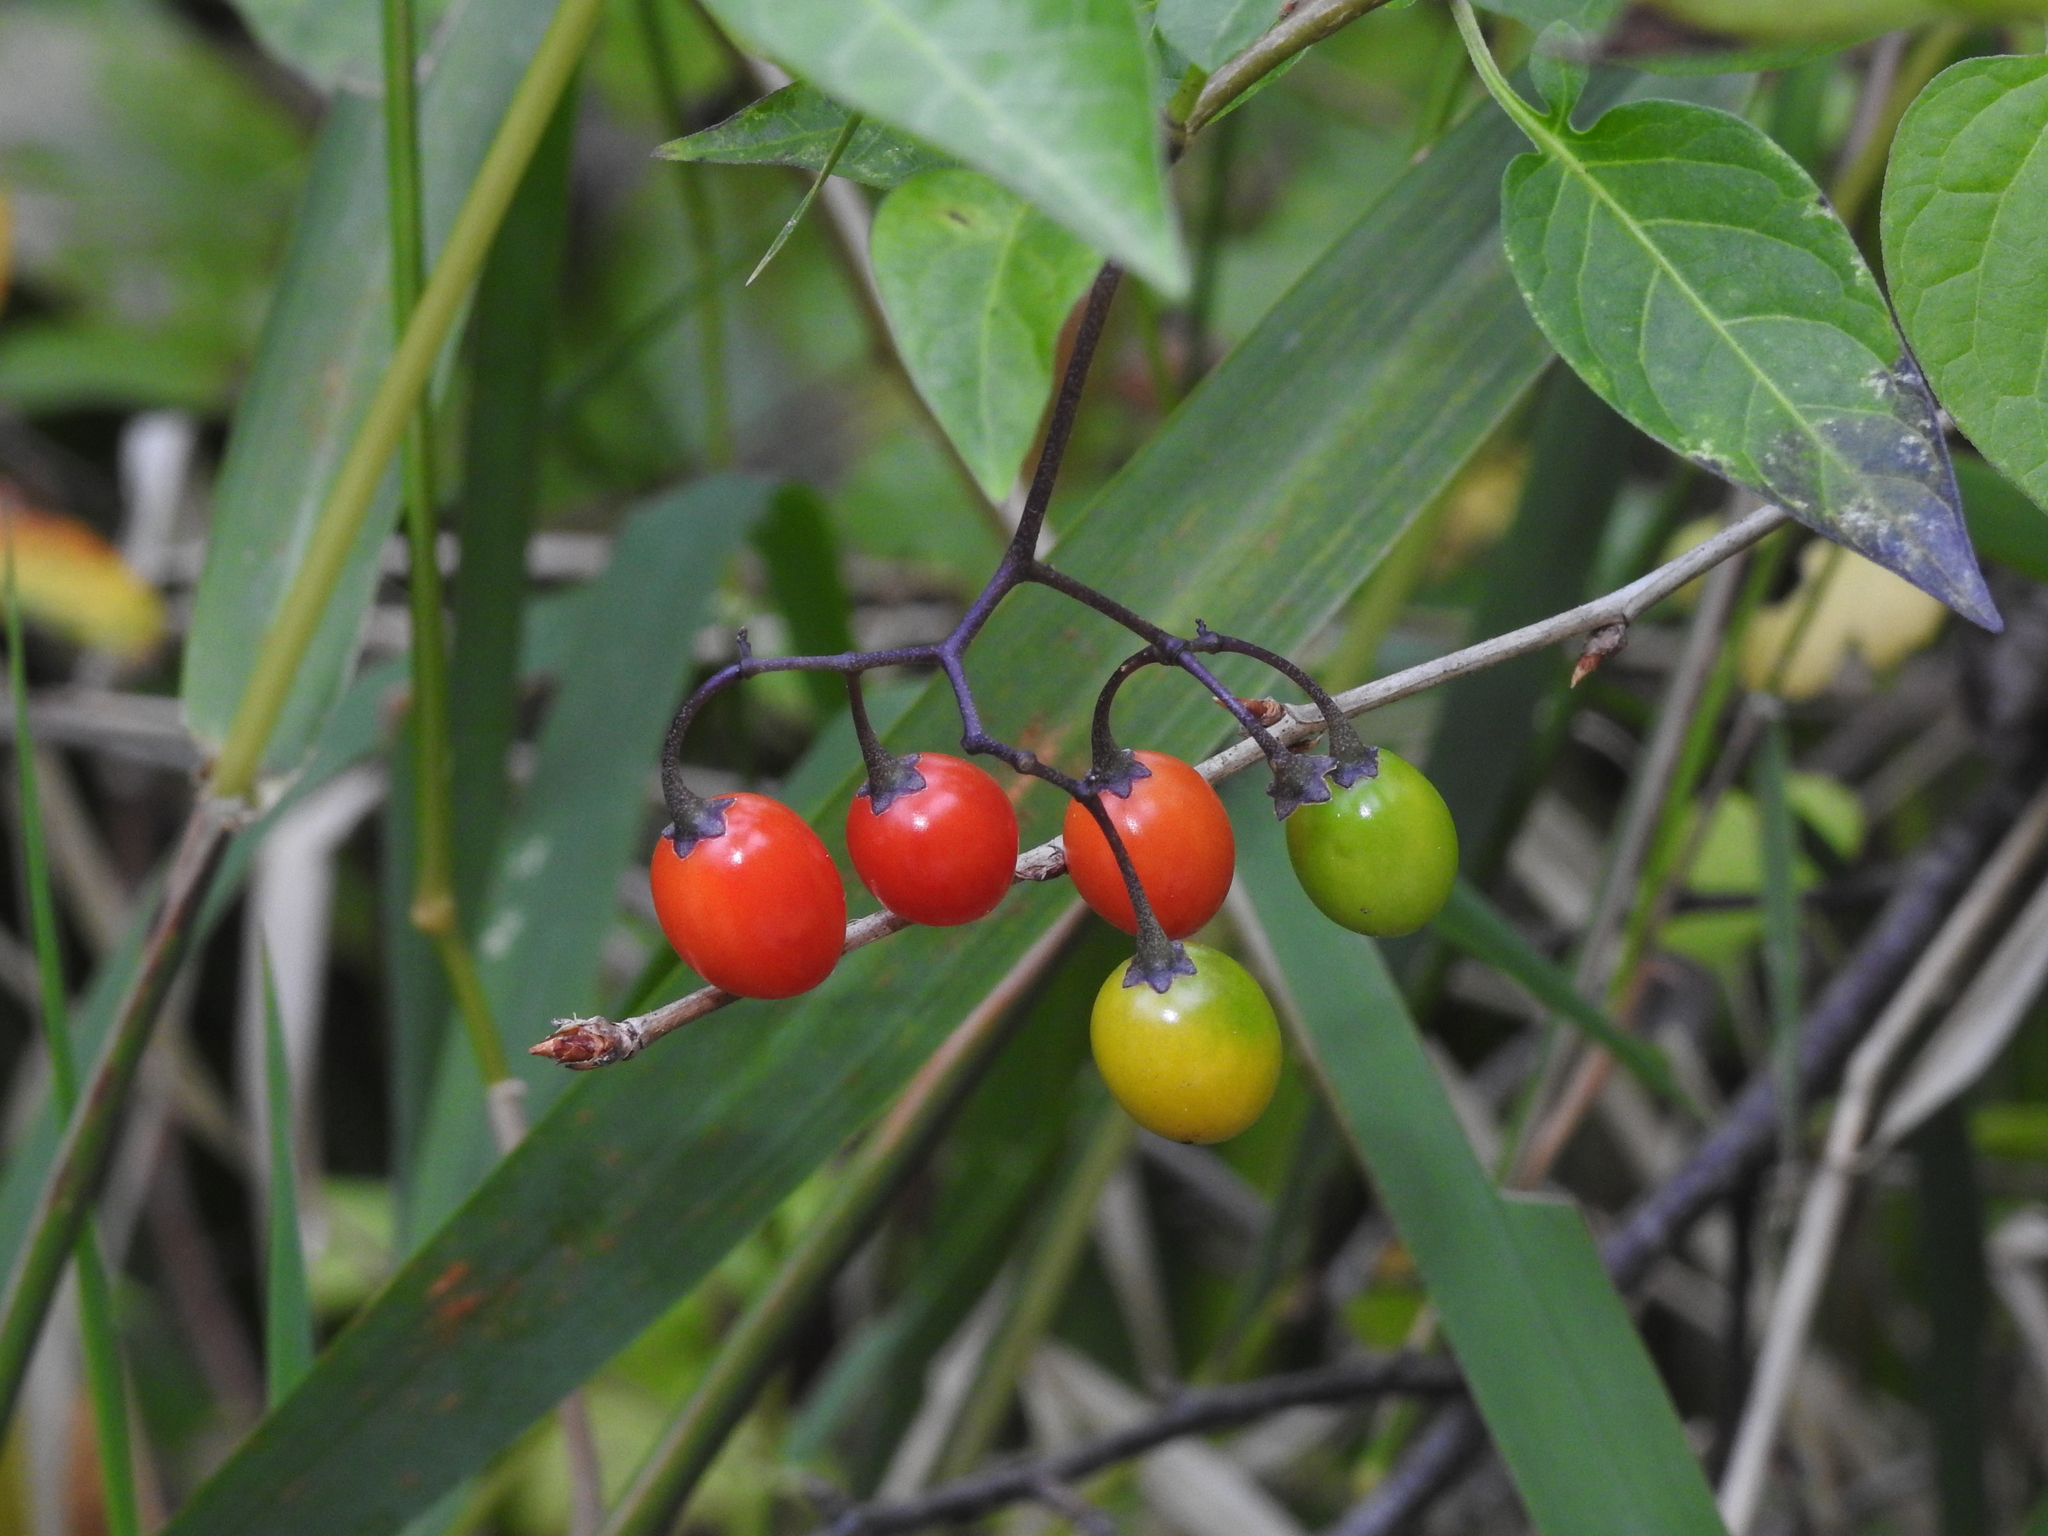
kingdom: Plantae
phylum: Tracheophyta
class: Magnoliopsida
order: Solanales
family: Solanaceae
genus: Solanum
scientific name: Solanum dulcamara
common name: Climbing nightshade
